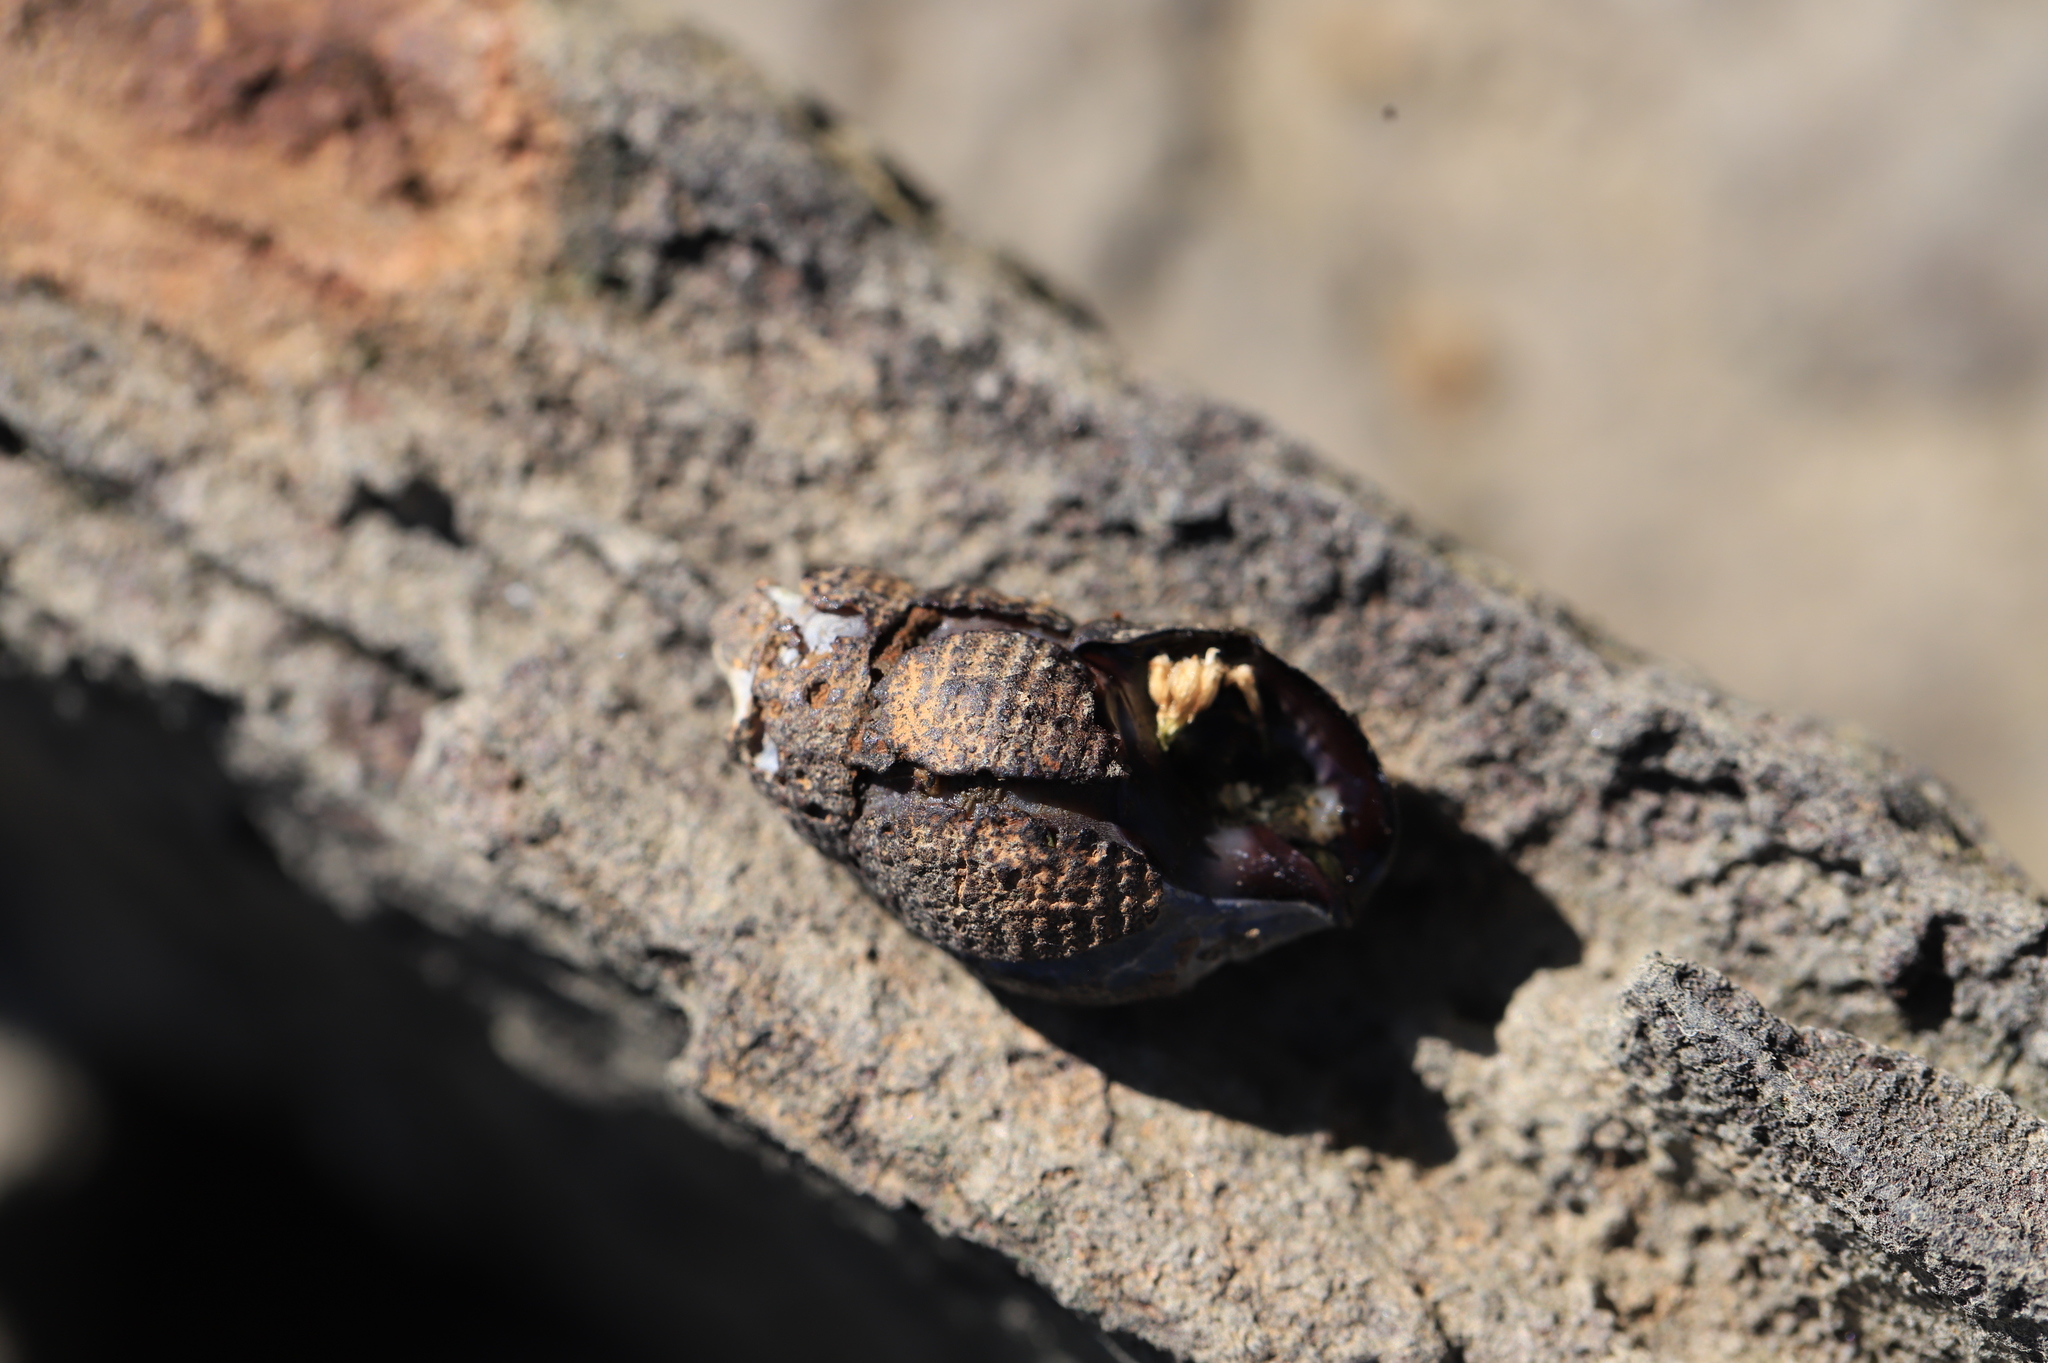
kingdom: Animalia
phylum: Mollusca
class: Gastropoda
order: Neogastropoda
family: Nassariidae
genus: Ilyanassa
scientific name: Ilyanassa obsoleta
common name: Eastern mudsnail
